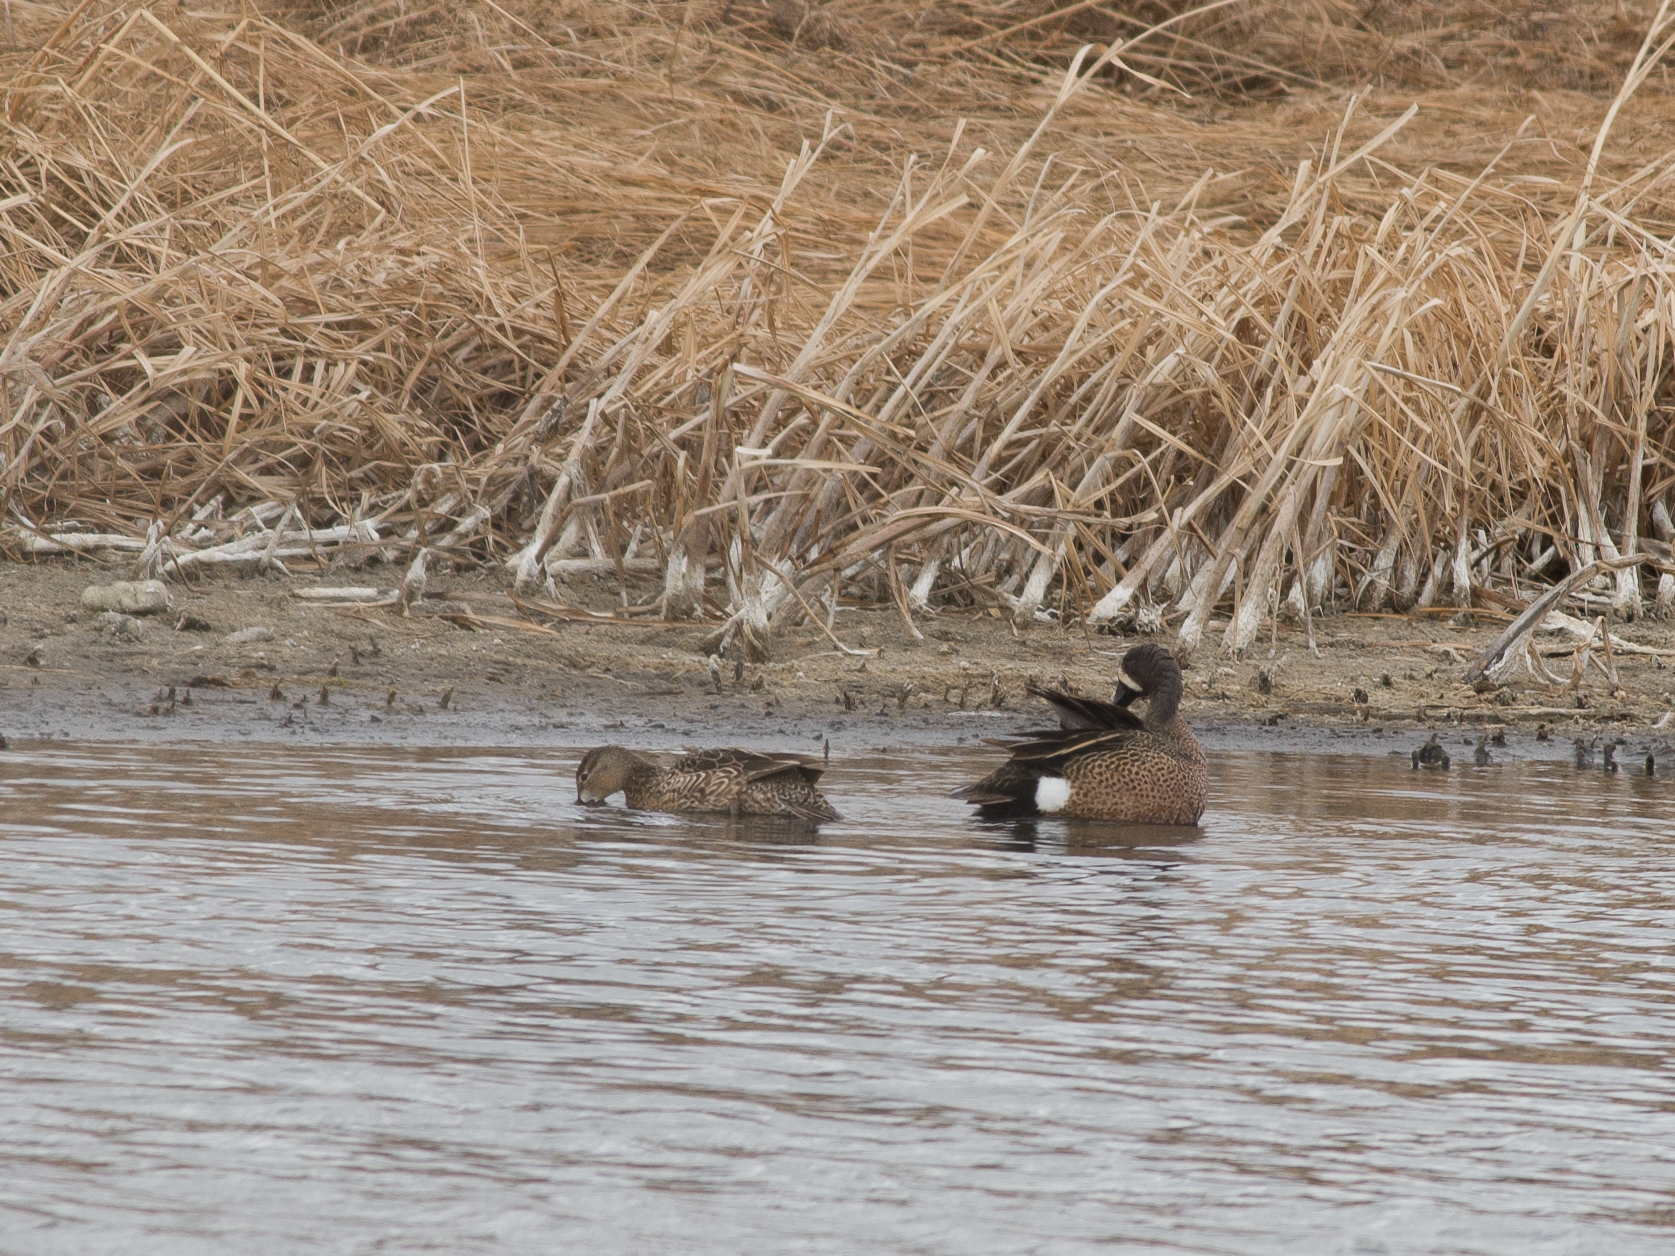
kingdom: Animalia
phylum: Chordata
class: Aves
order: Anseriformes
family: Anatidae
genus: Spatula
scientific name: Spatula discors
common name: Blue-winged teal
